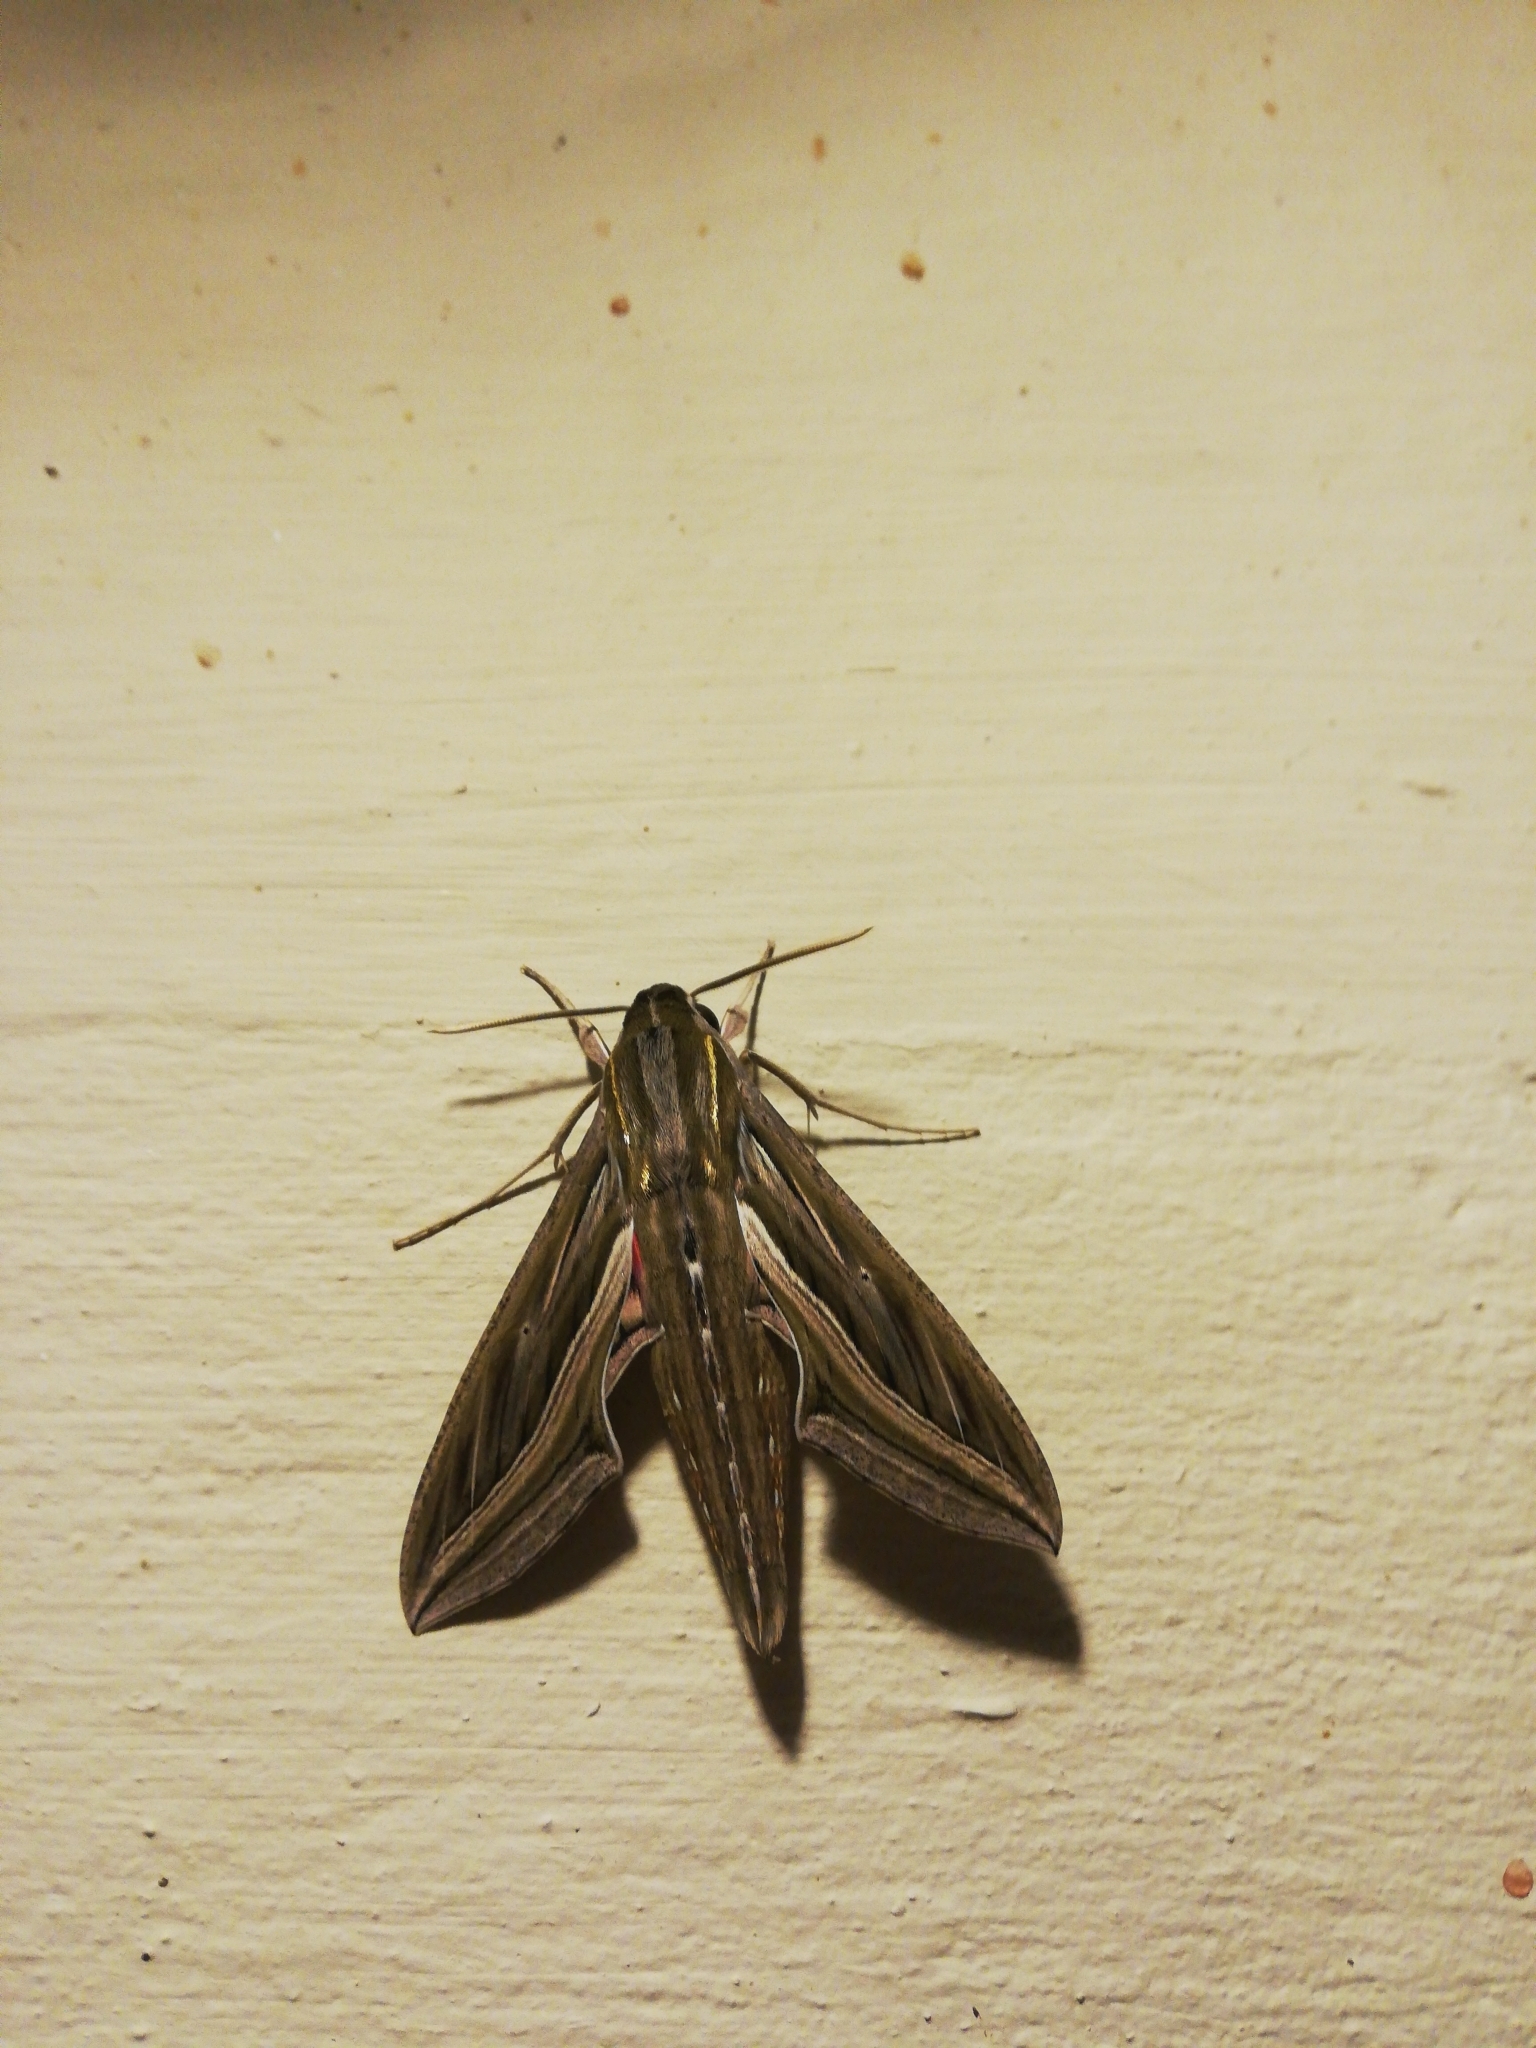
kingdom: Animalia
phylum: Arthropoda
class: Insecta
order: Lepidoptera
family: Sphingidae
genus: Hippotion
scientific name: Hippotion celerio
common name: Silver-striped hawk-moth
